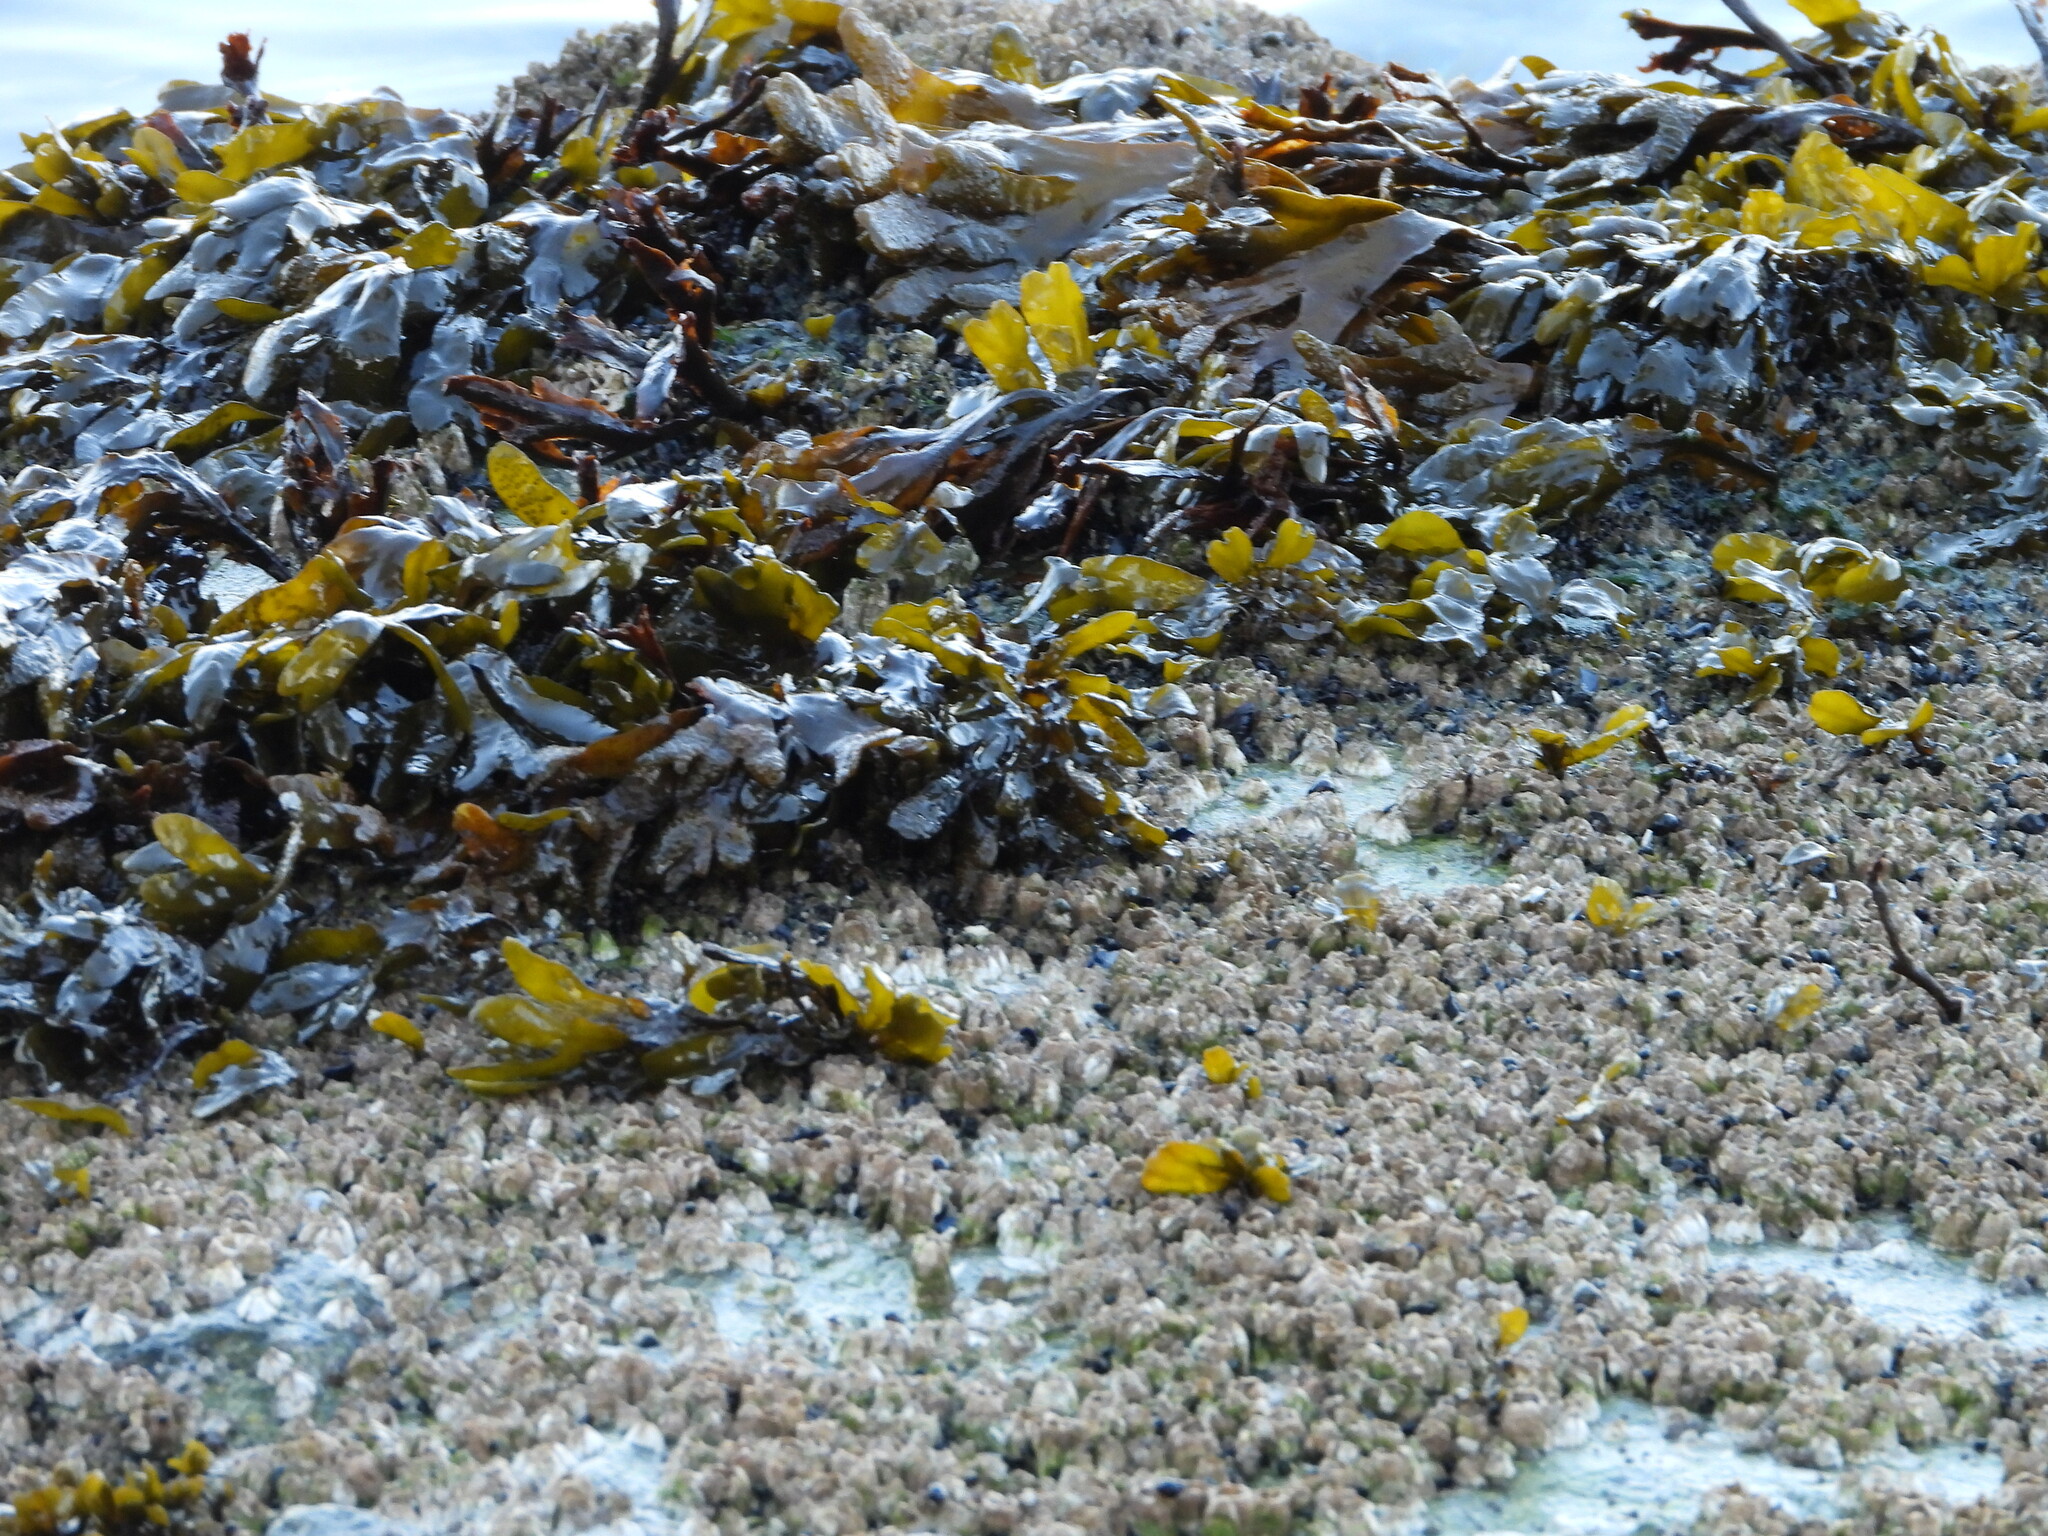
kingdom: Chromista
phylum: Ochrophyta
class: Phaeophyceae
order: Fucales
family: Fucaceae
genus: Fucus
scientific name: Fucus distichus
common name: Rockweed
